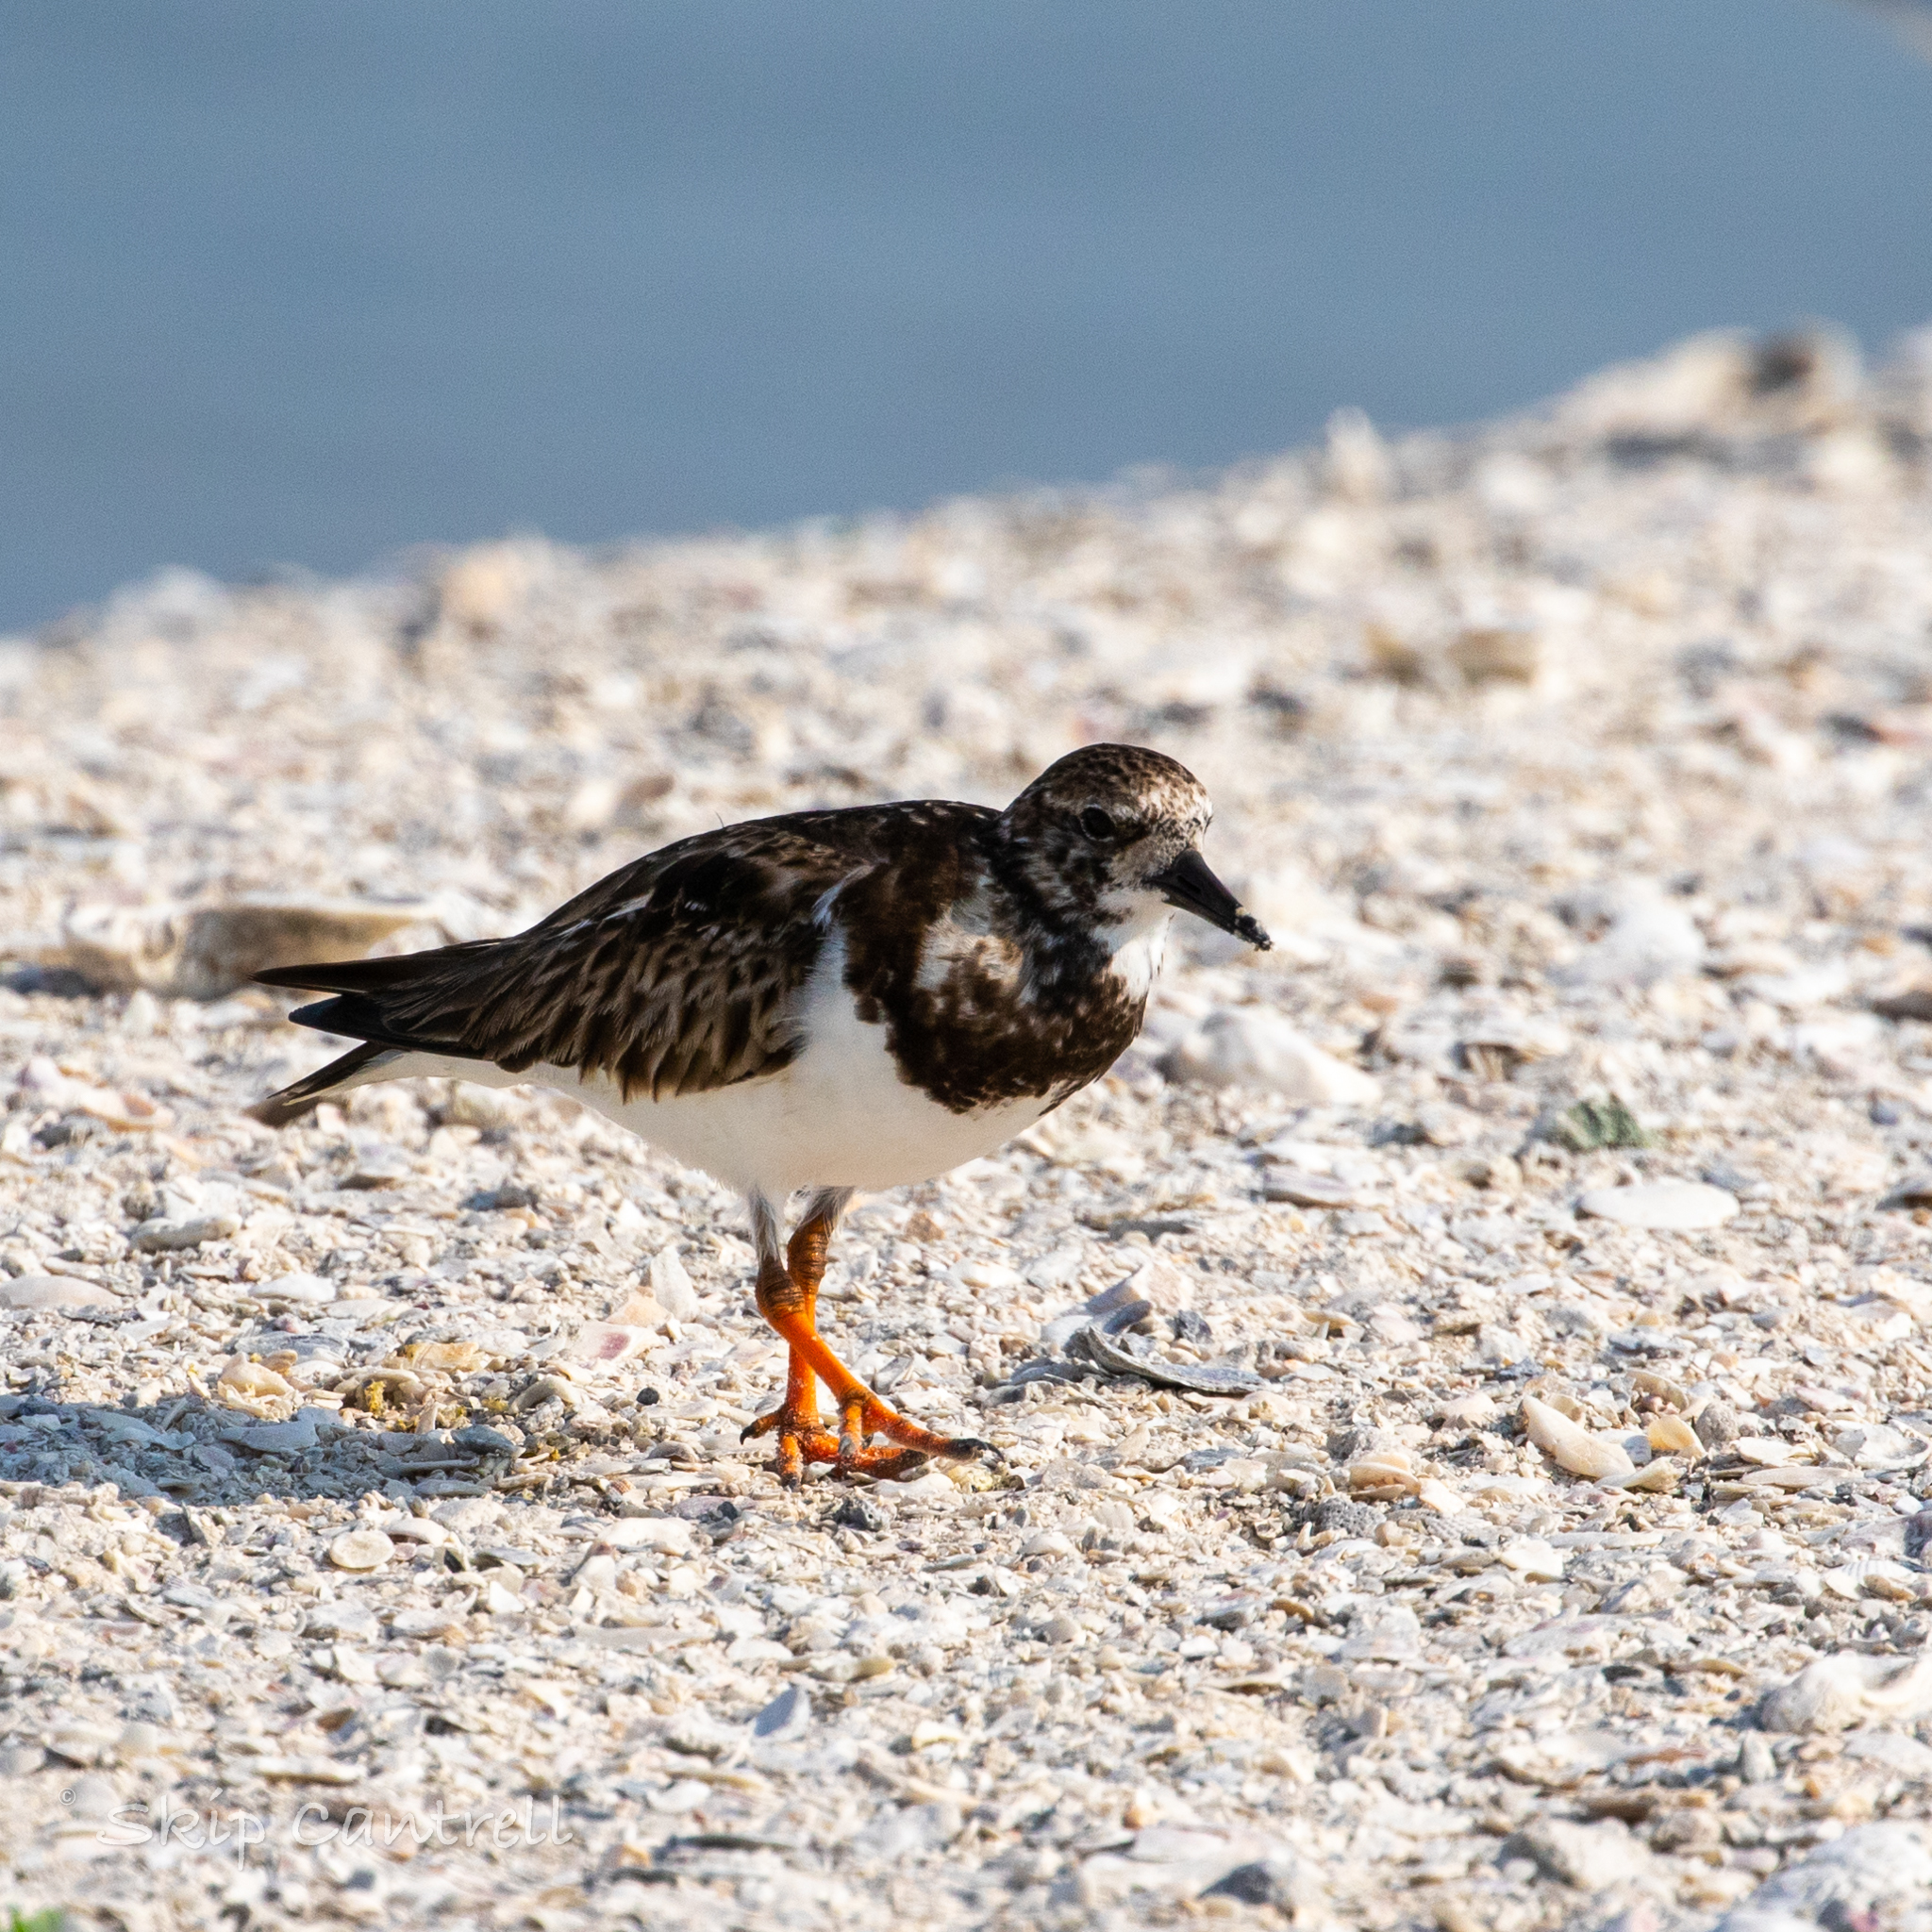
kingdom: Animalia
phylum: Chordata
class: Aves
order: Charadriiformes
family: Scolopacidae
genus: Arenaria
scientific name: Arenaria interpres
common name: Ruddy turnstone
